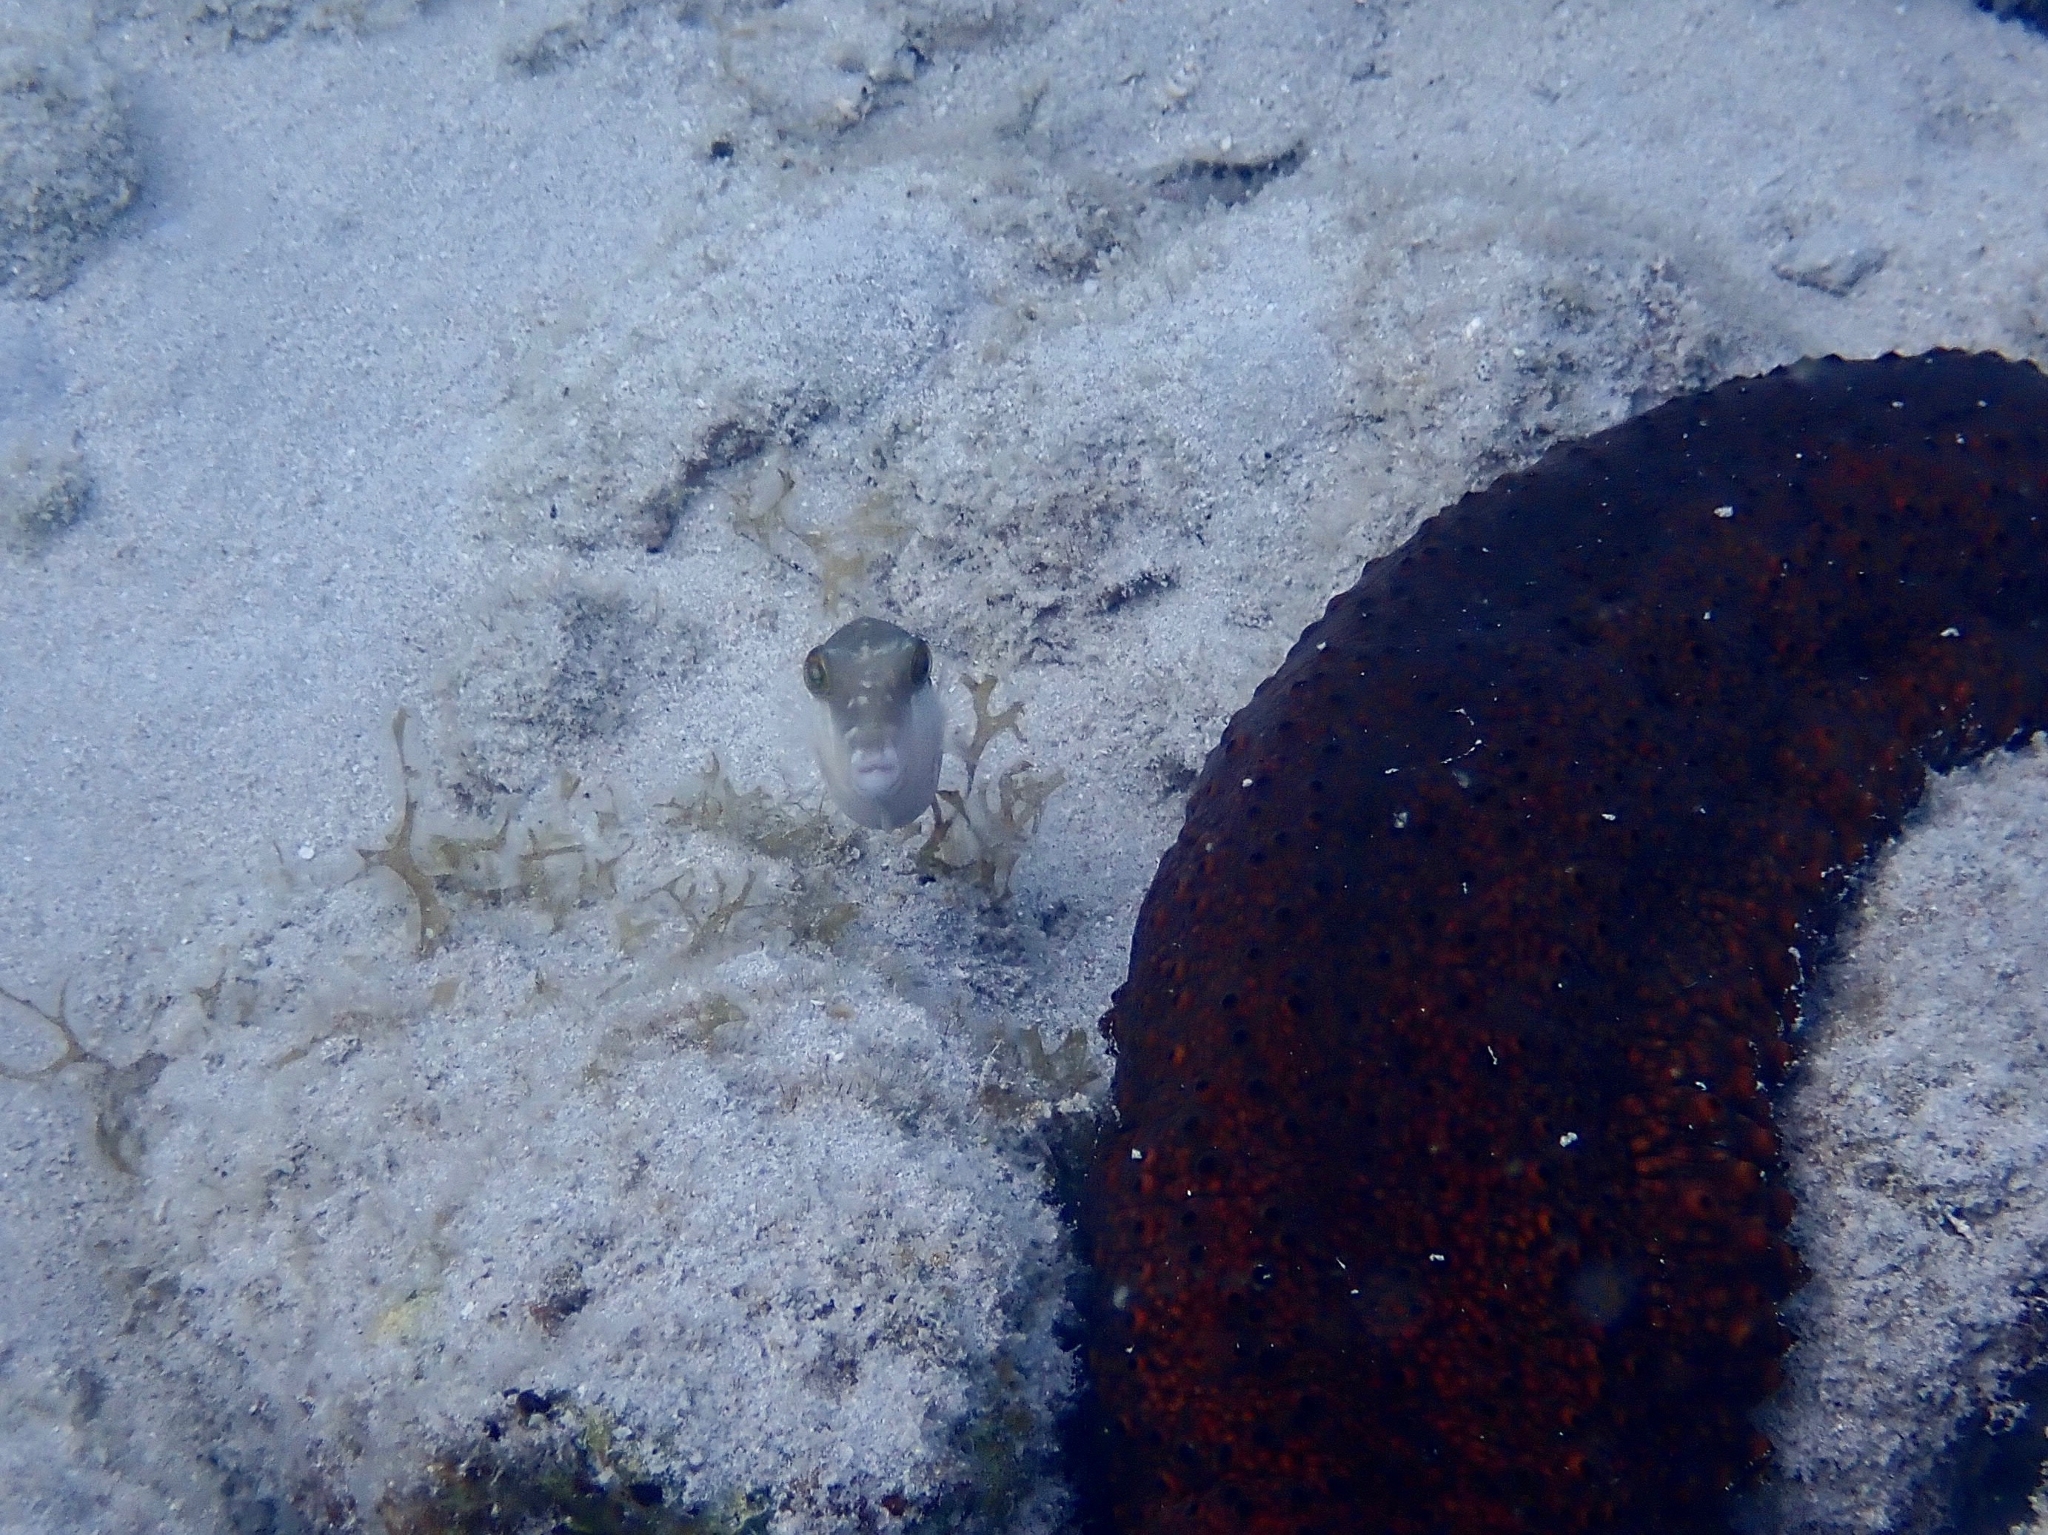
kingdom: Animalia
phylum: Chordata
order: Tetraodontiformes
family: Tetraodontidae
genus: Canthigaster
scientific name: Canthigaster rostrata
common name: Caribbean sharpnose-puffer
